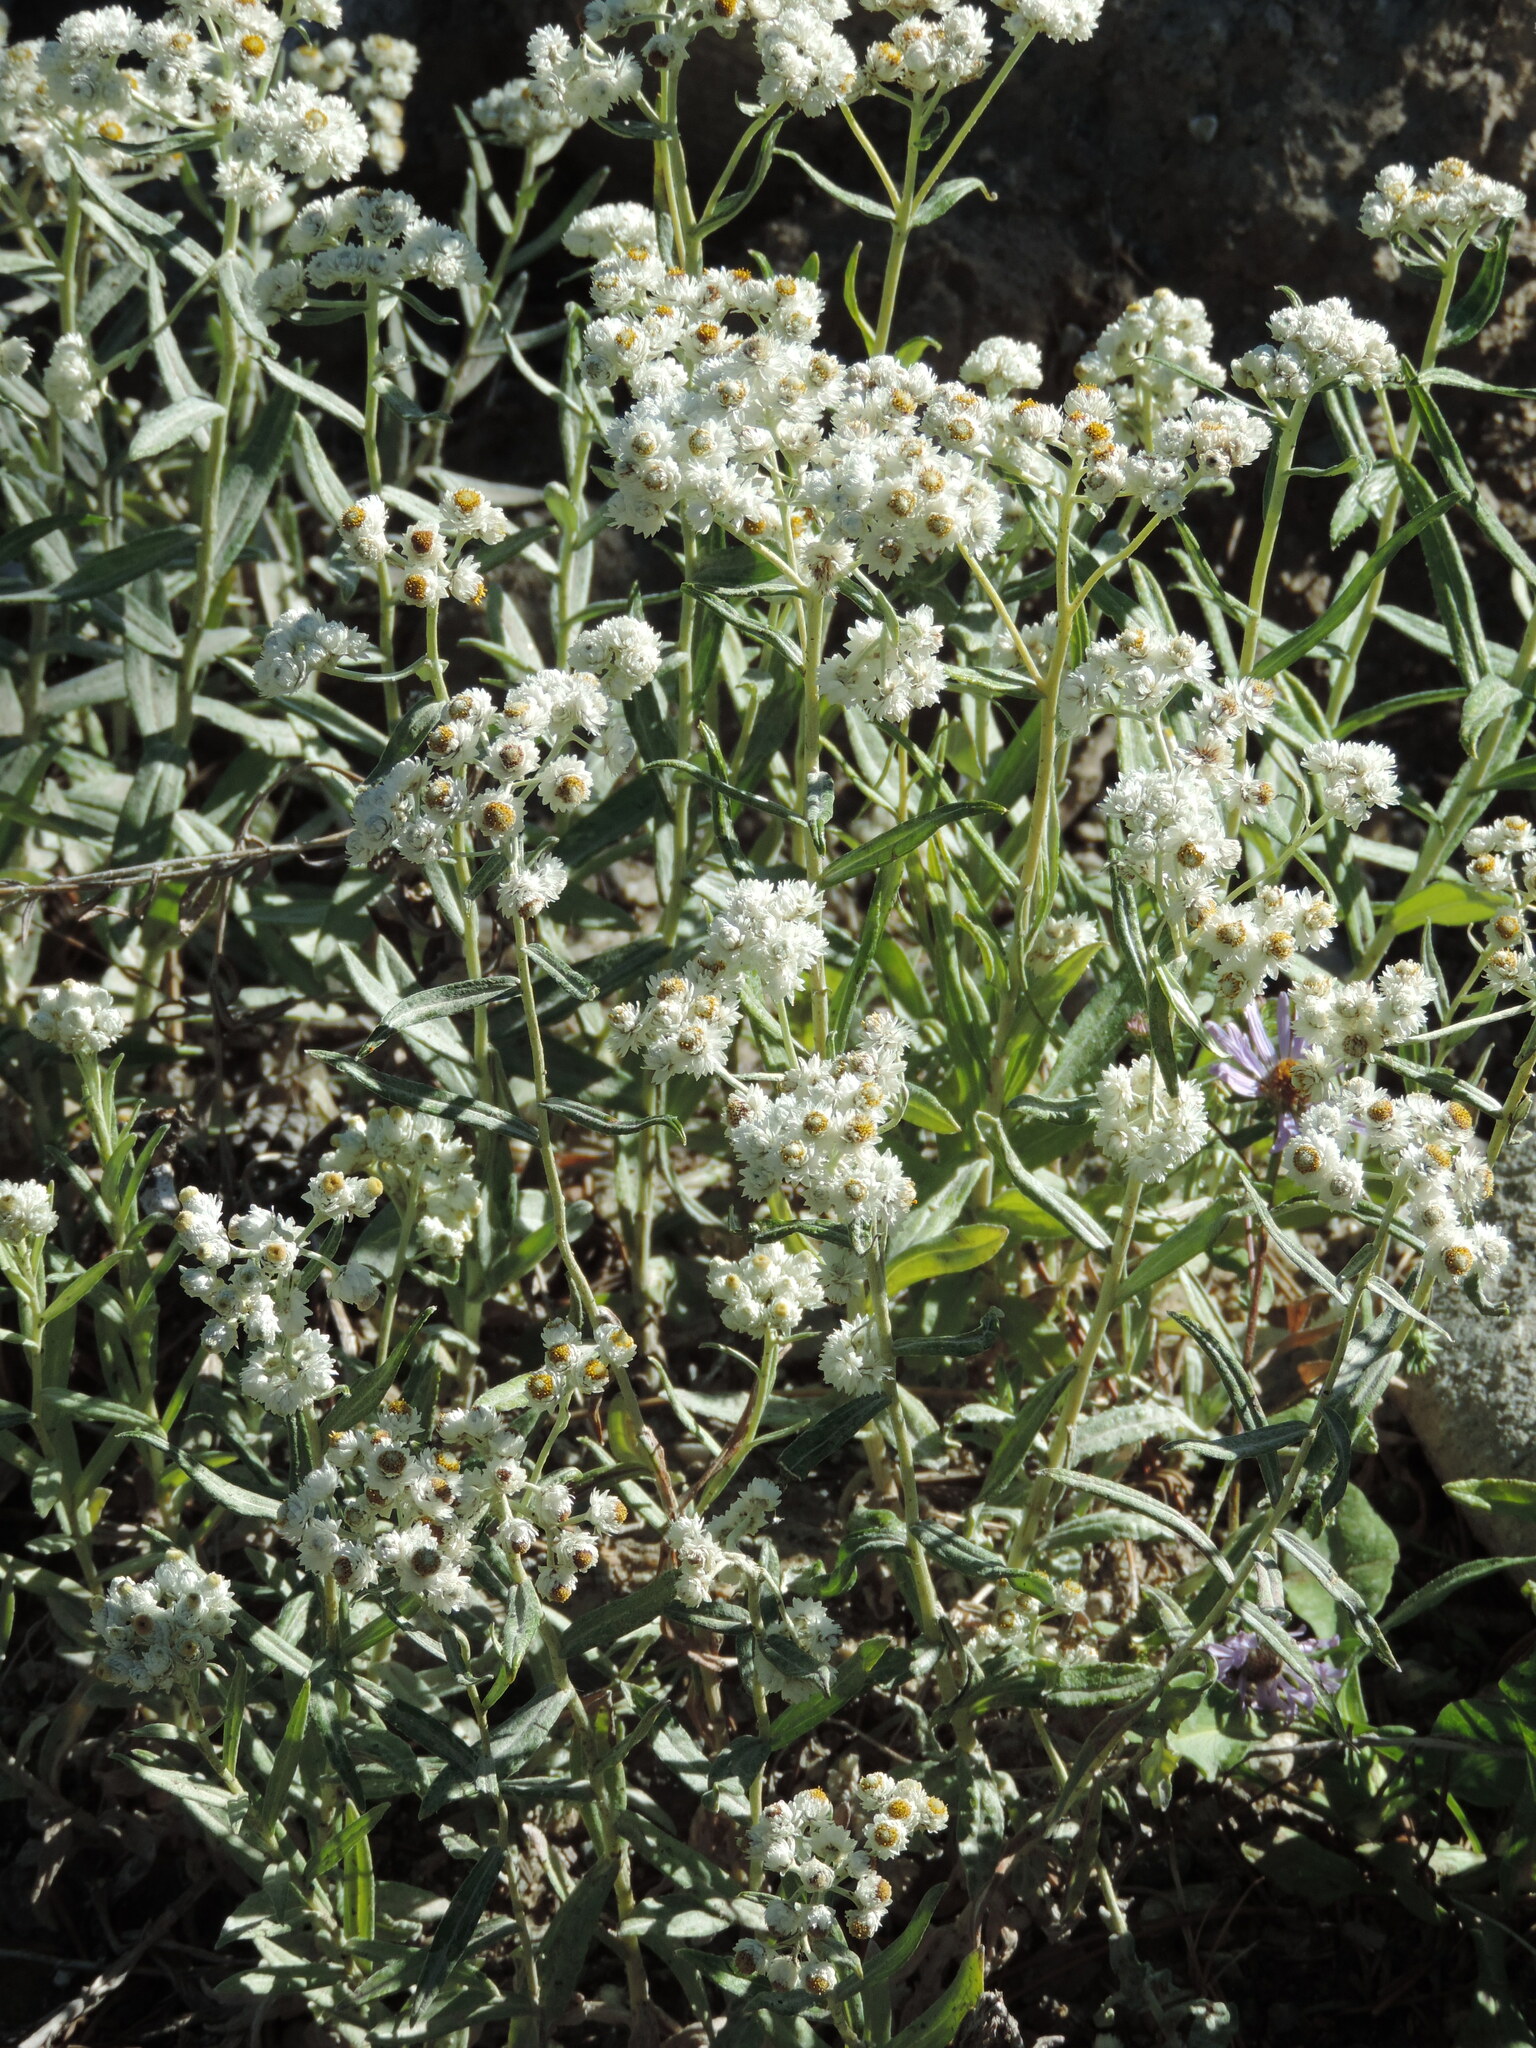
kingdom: Plantae
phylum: Tracheophyta
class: Magnoliopsida
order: Asterales
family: Asteraceae
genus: Anaphalis
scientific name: Anaphalis margaritacea
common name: Pearly everlasting
